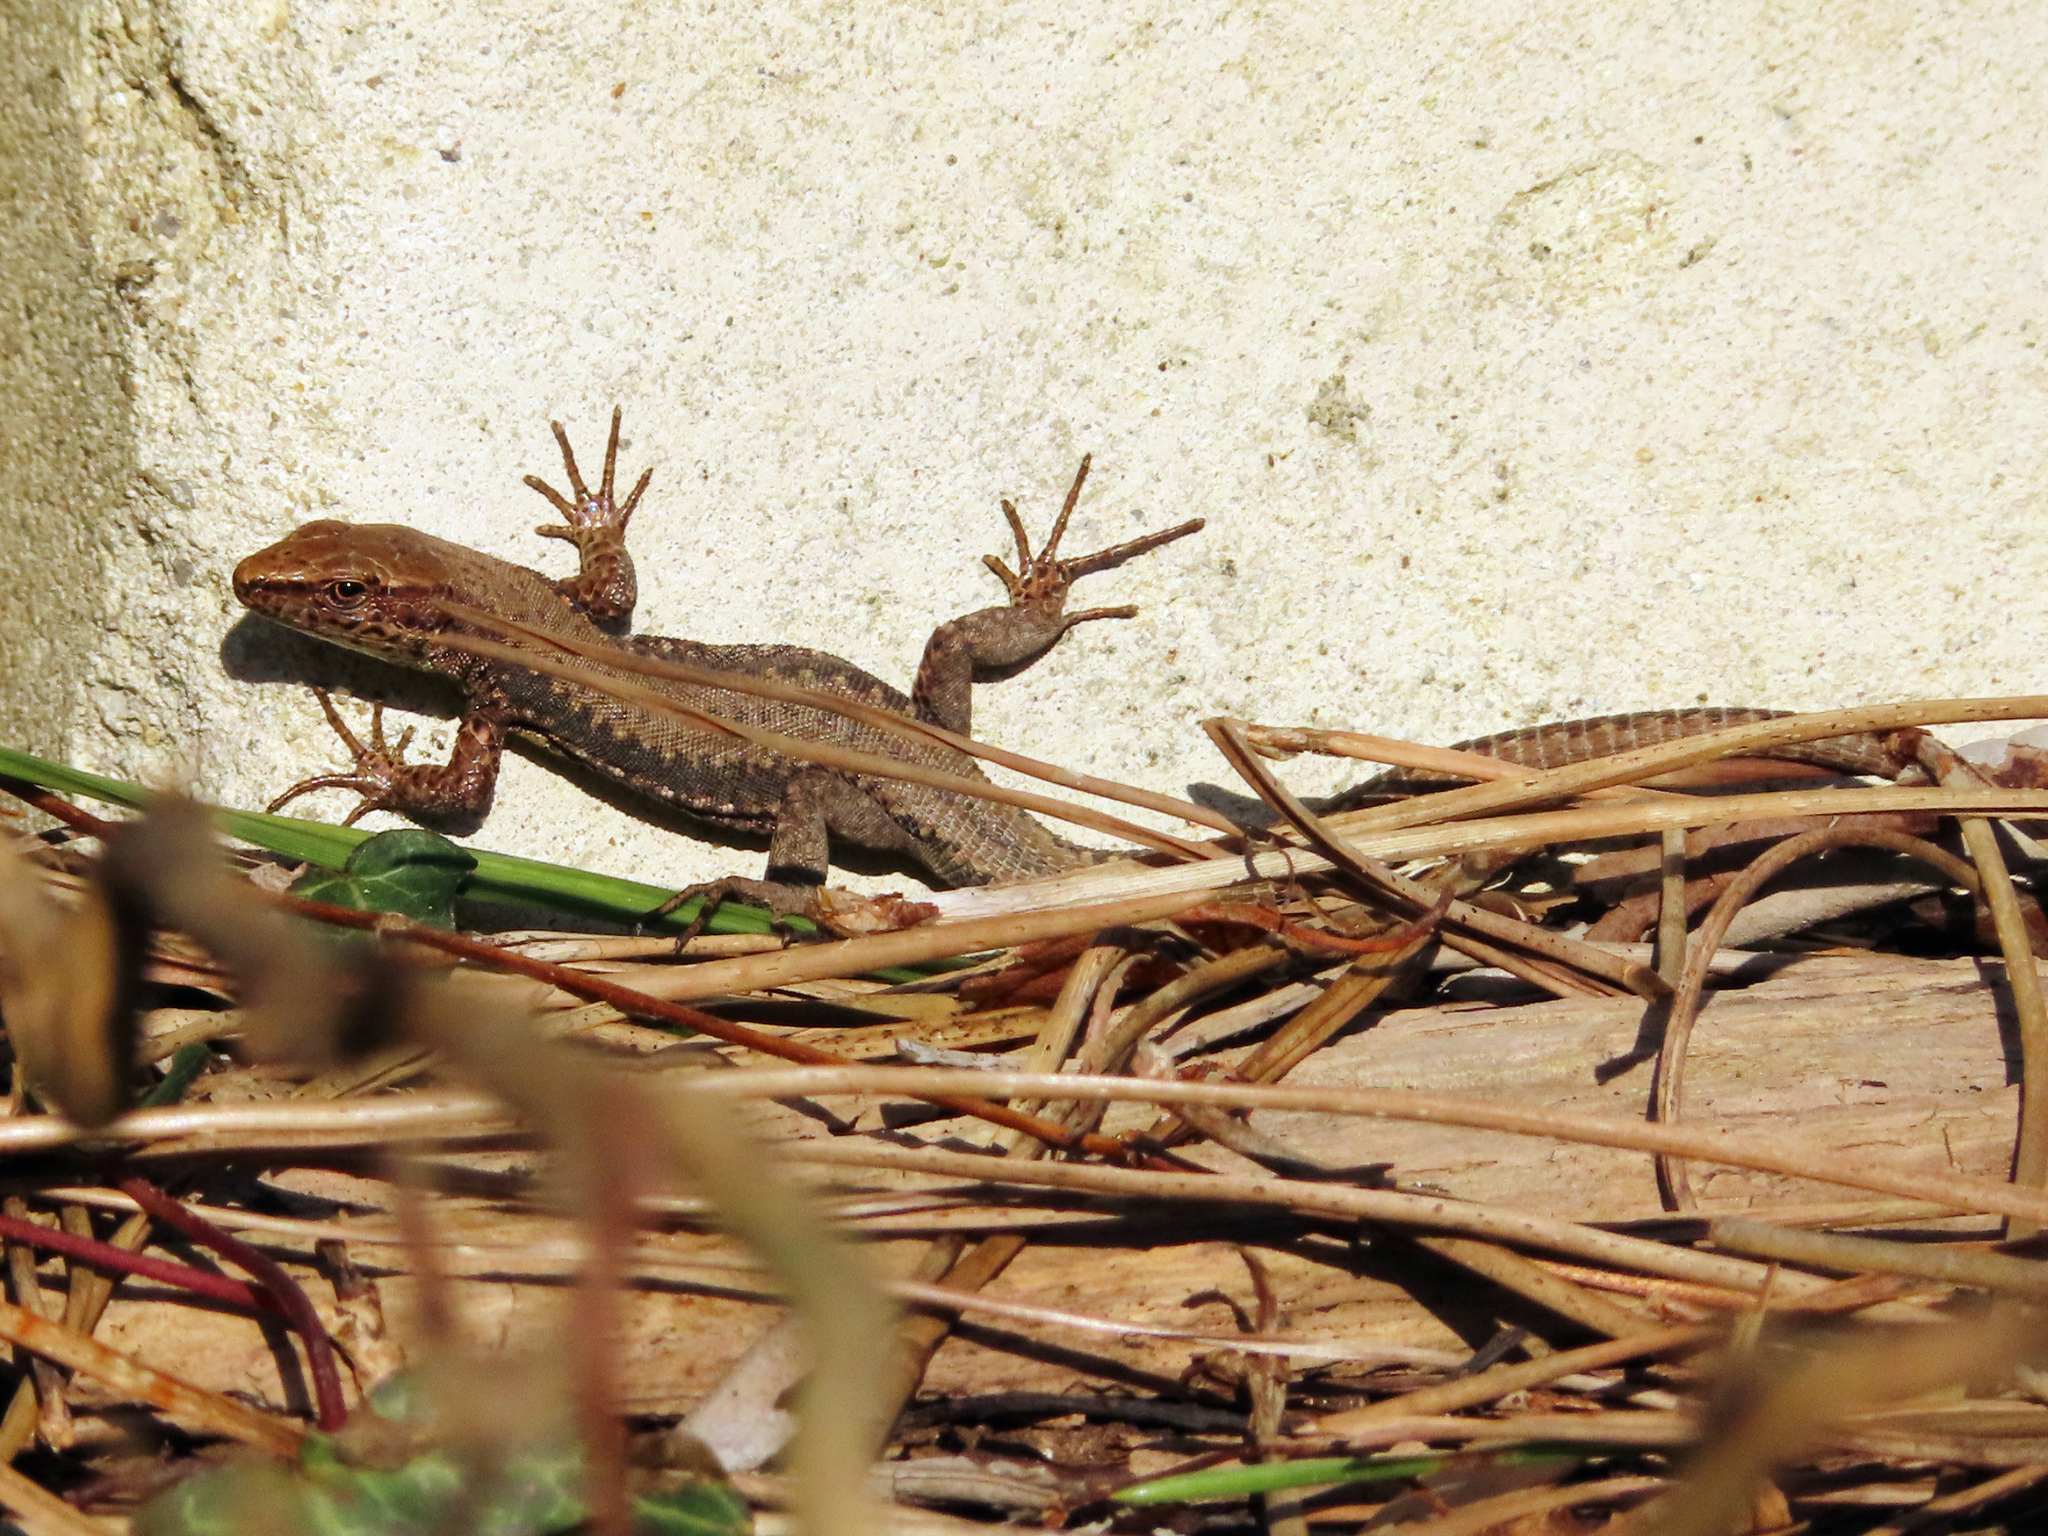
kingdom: Animalia
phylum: Chordata
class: Squamata
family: Lacertidae
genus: Darevskia
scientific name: Darevskia derjugini
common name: Derjugin's lizard
